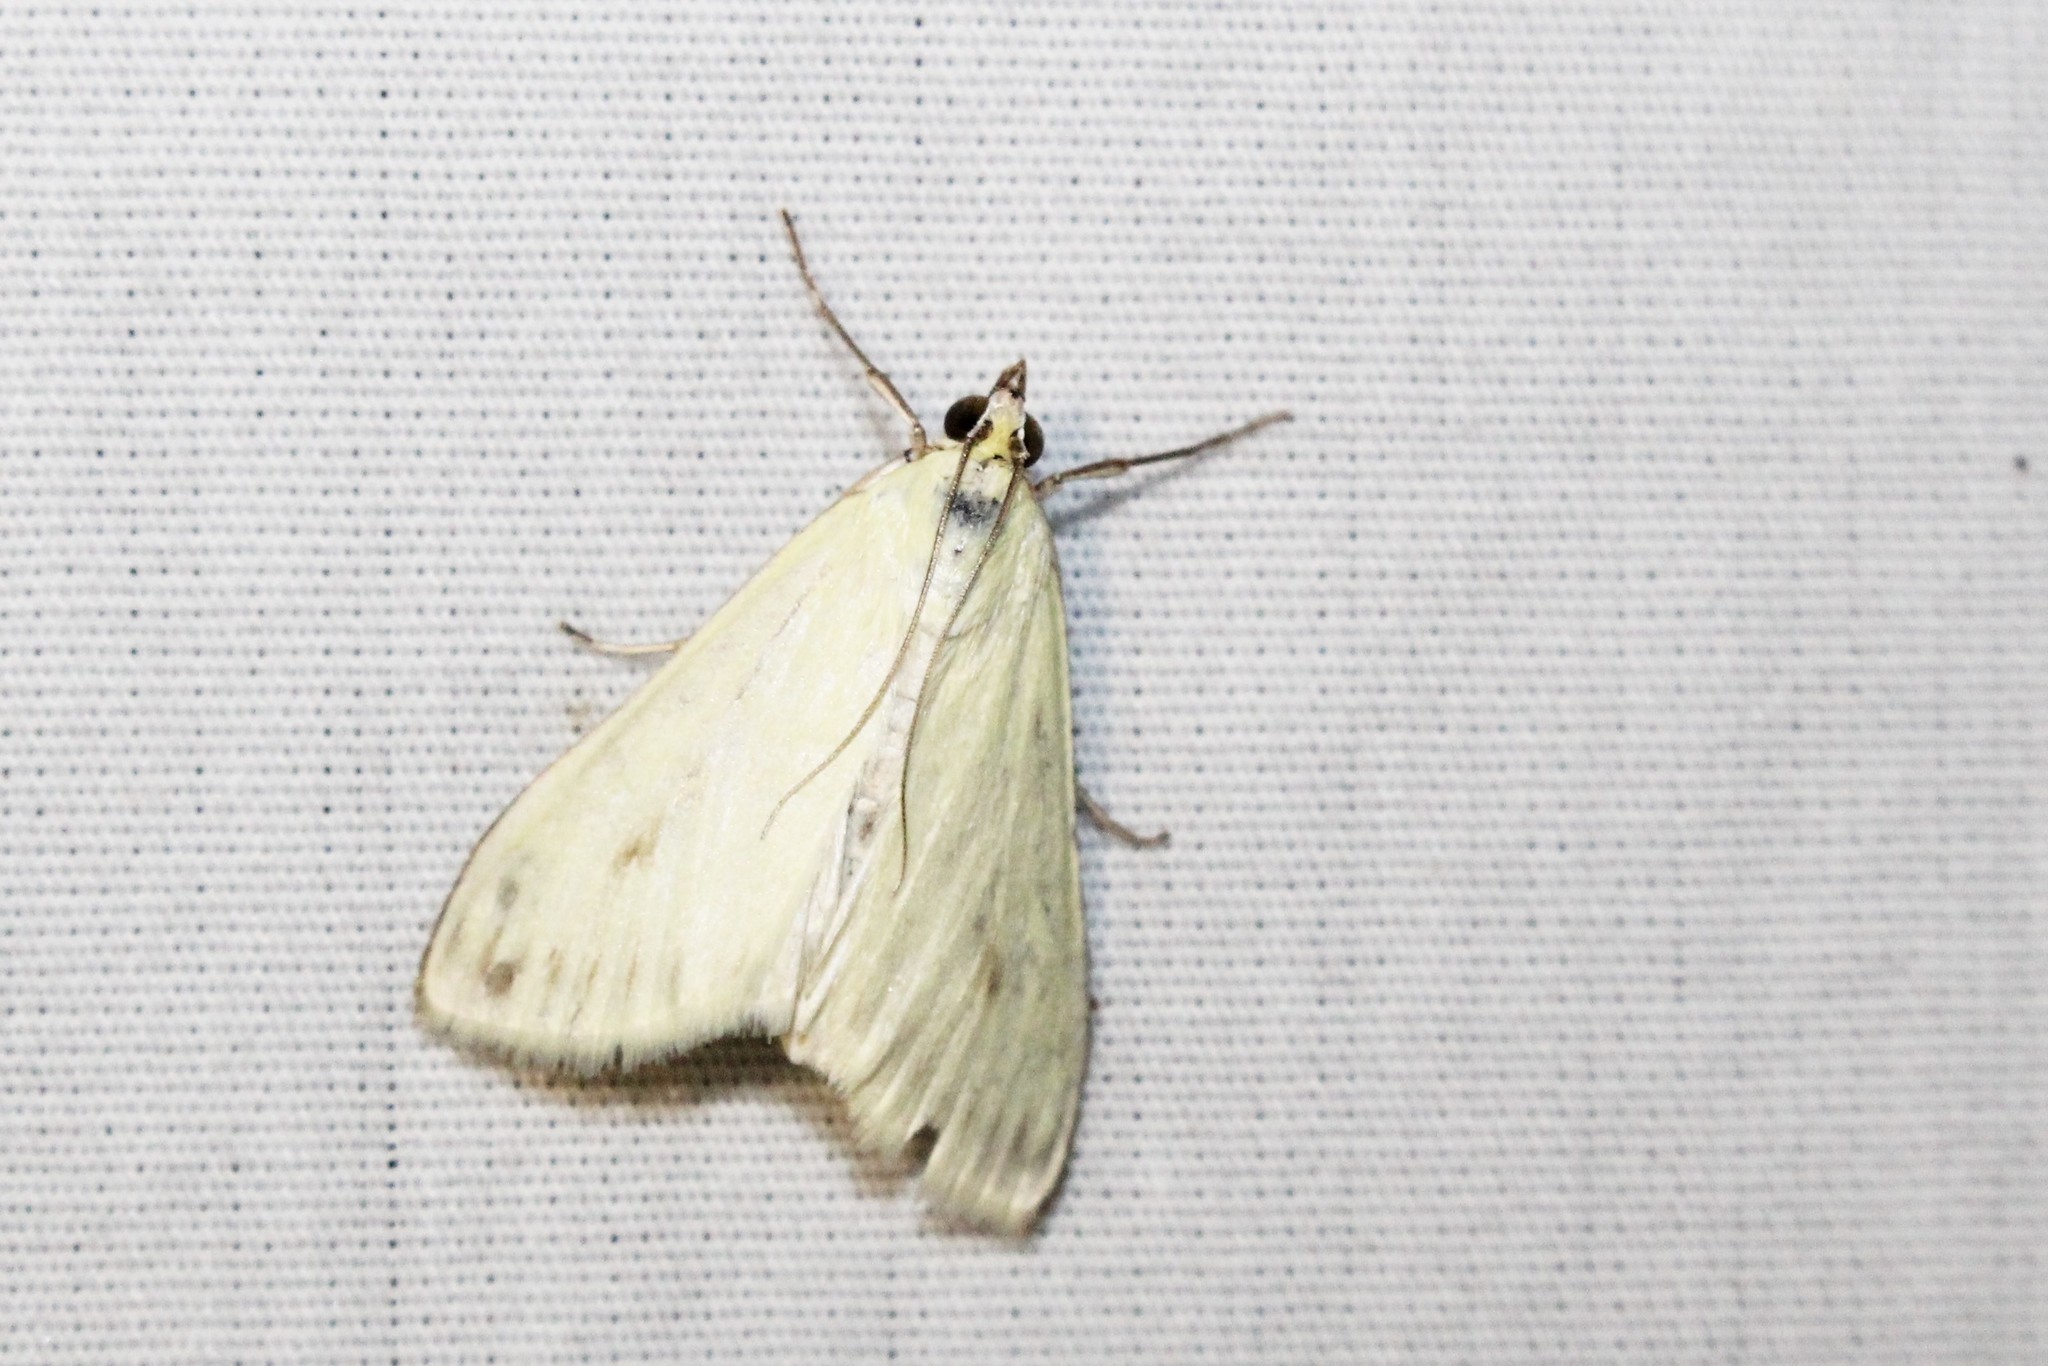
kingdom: Animalia
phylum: Arthropoda
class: Insecta
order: Lepidoptera
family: Crambidae
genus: Sitochroa
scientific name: Sitochroa palealis
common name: Greenish-yellow sitochroa moth
